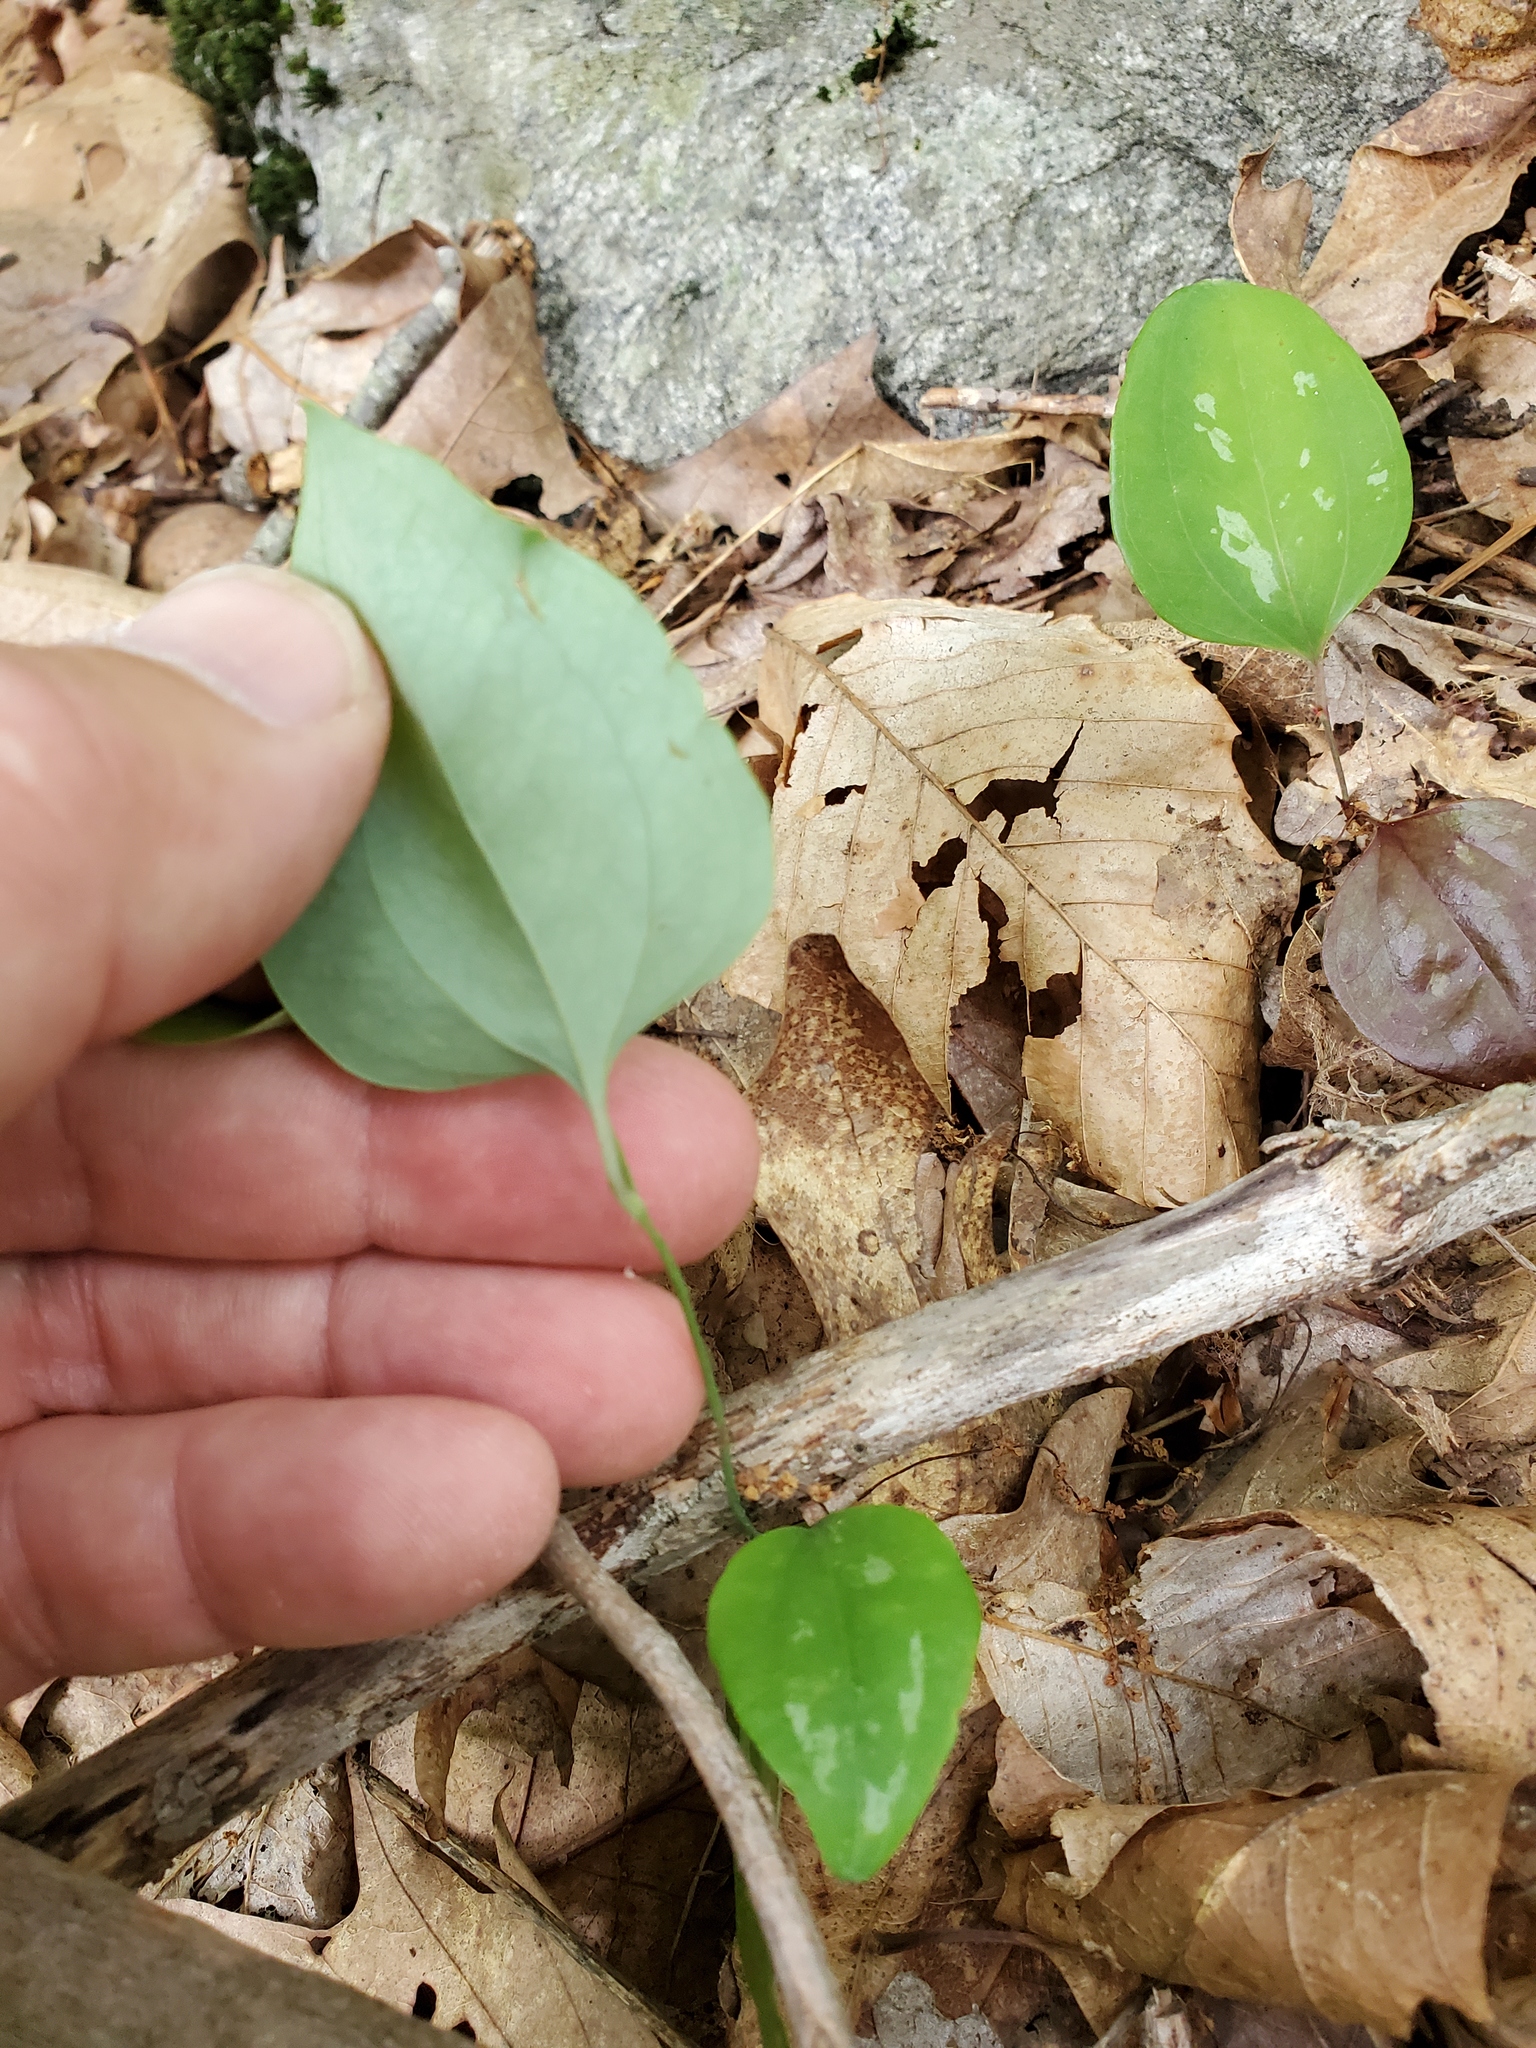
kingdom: Plantae
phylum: Tracheophyta
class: Liliopsida
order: Liliales
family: Smilacaceae
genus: Smilax
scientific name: Smilax glauca
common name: Cat greenbrier
